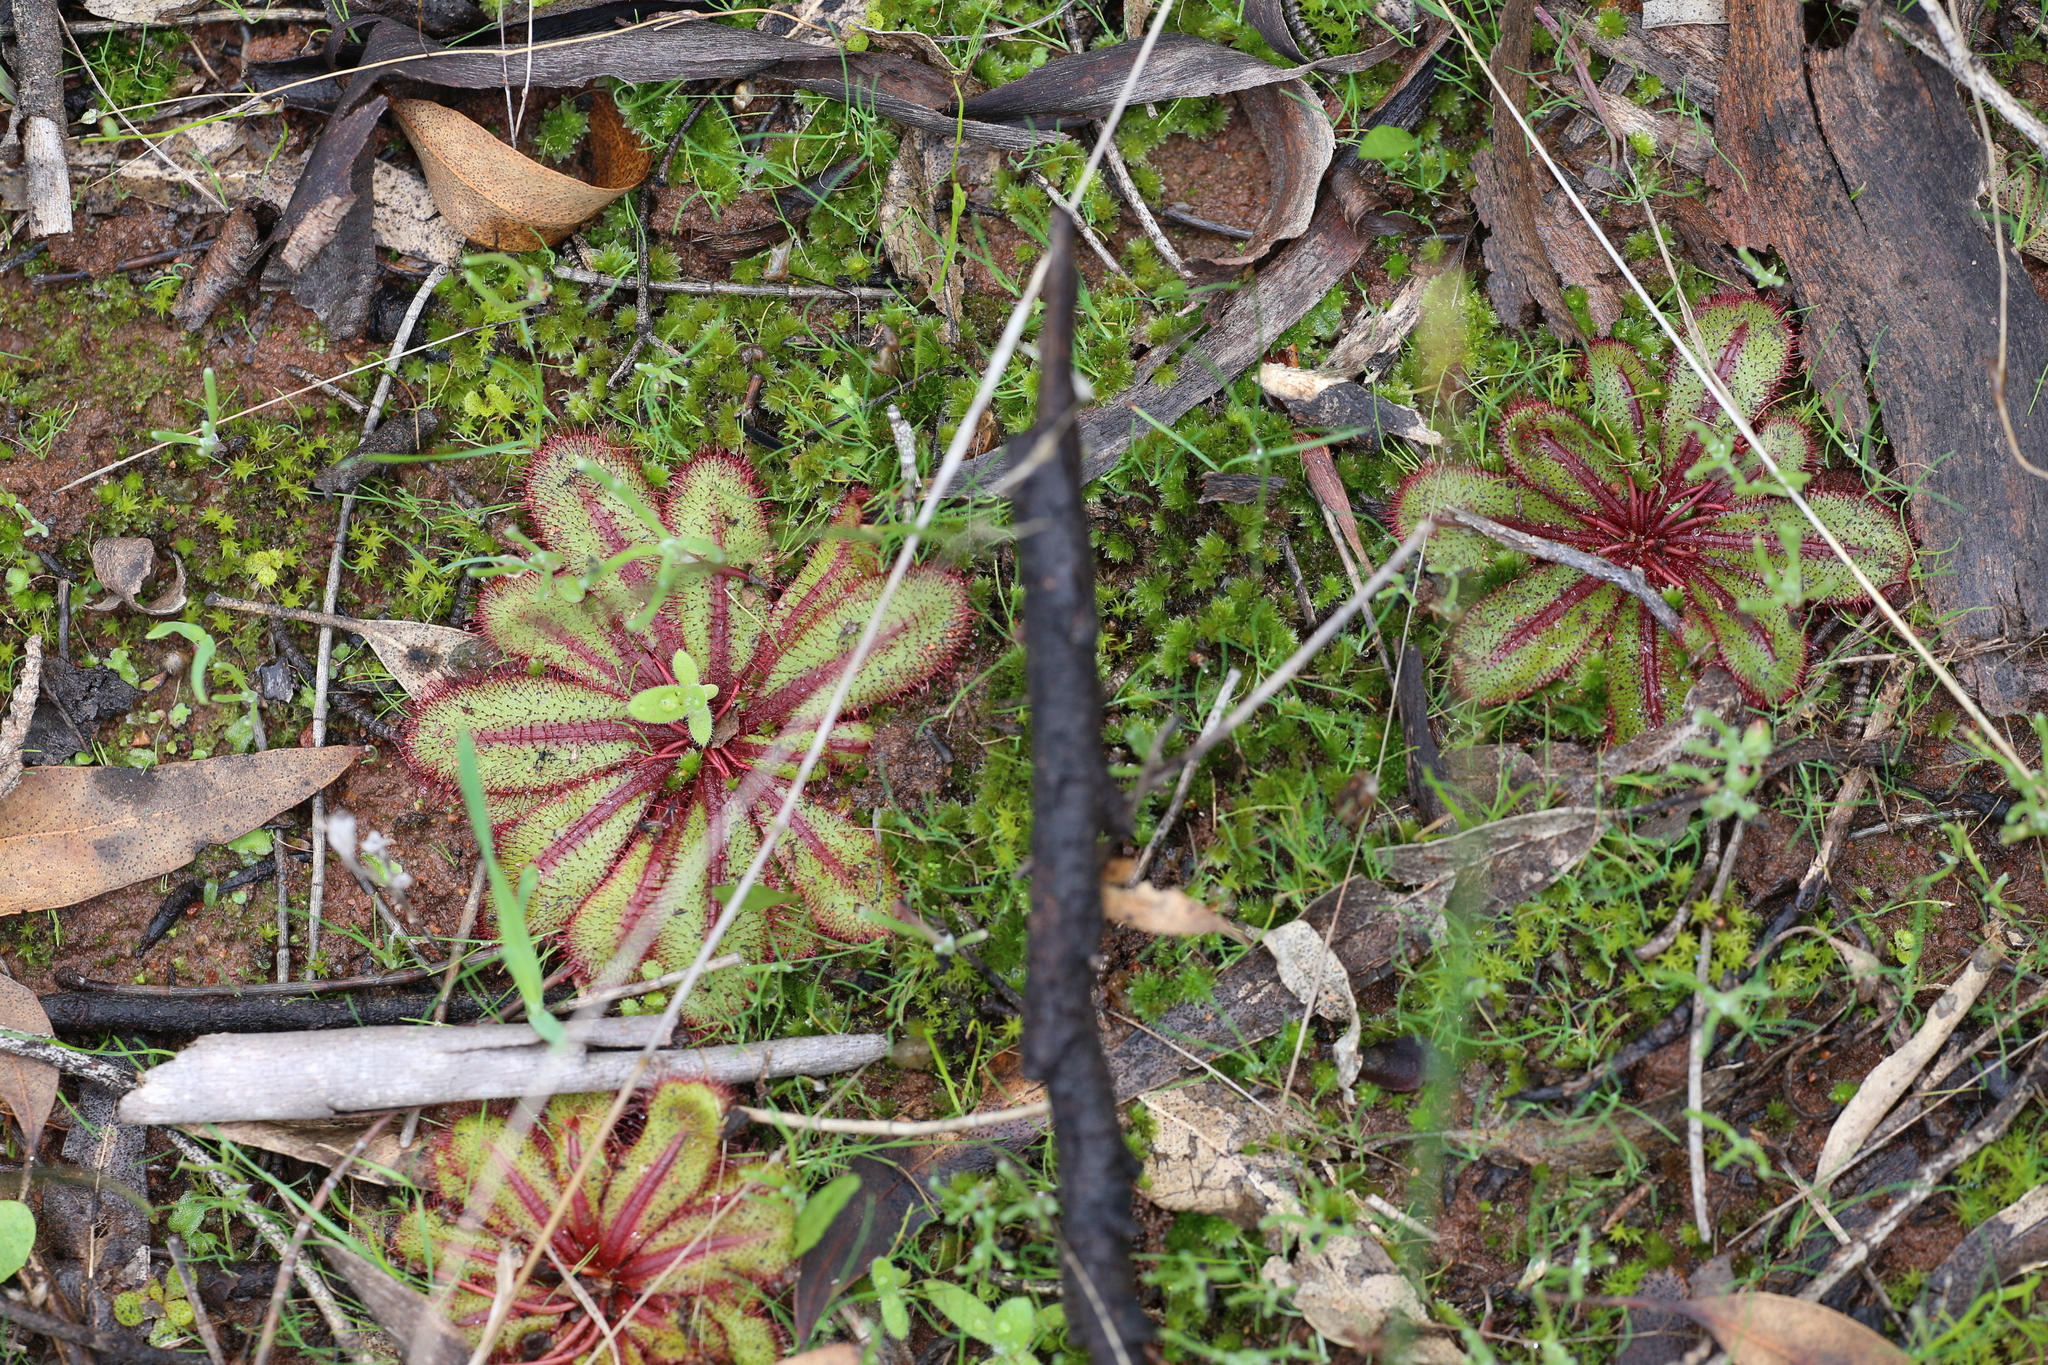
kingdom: Plantae
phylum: Tracheophyta
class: Magnoliopsida
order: Caryophyllales
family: Droseraceae
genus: Drosera
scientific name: Drosera bulbosa
